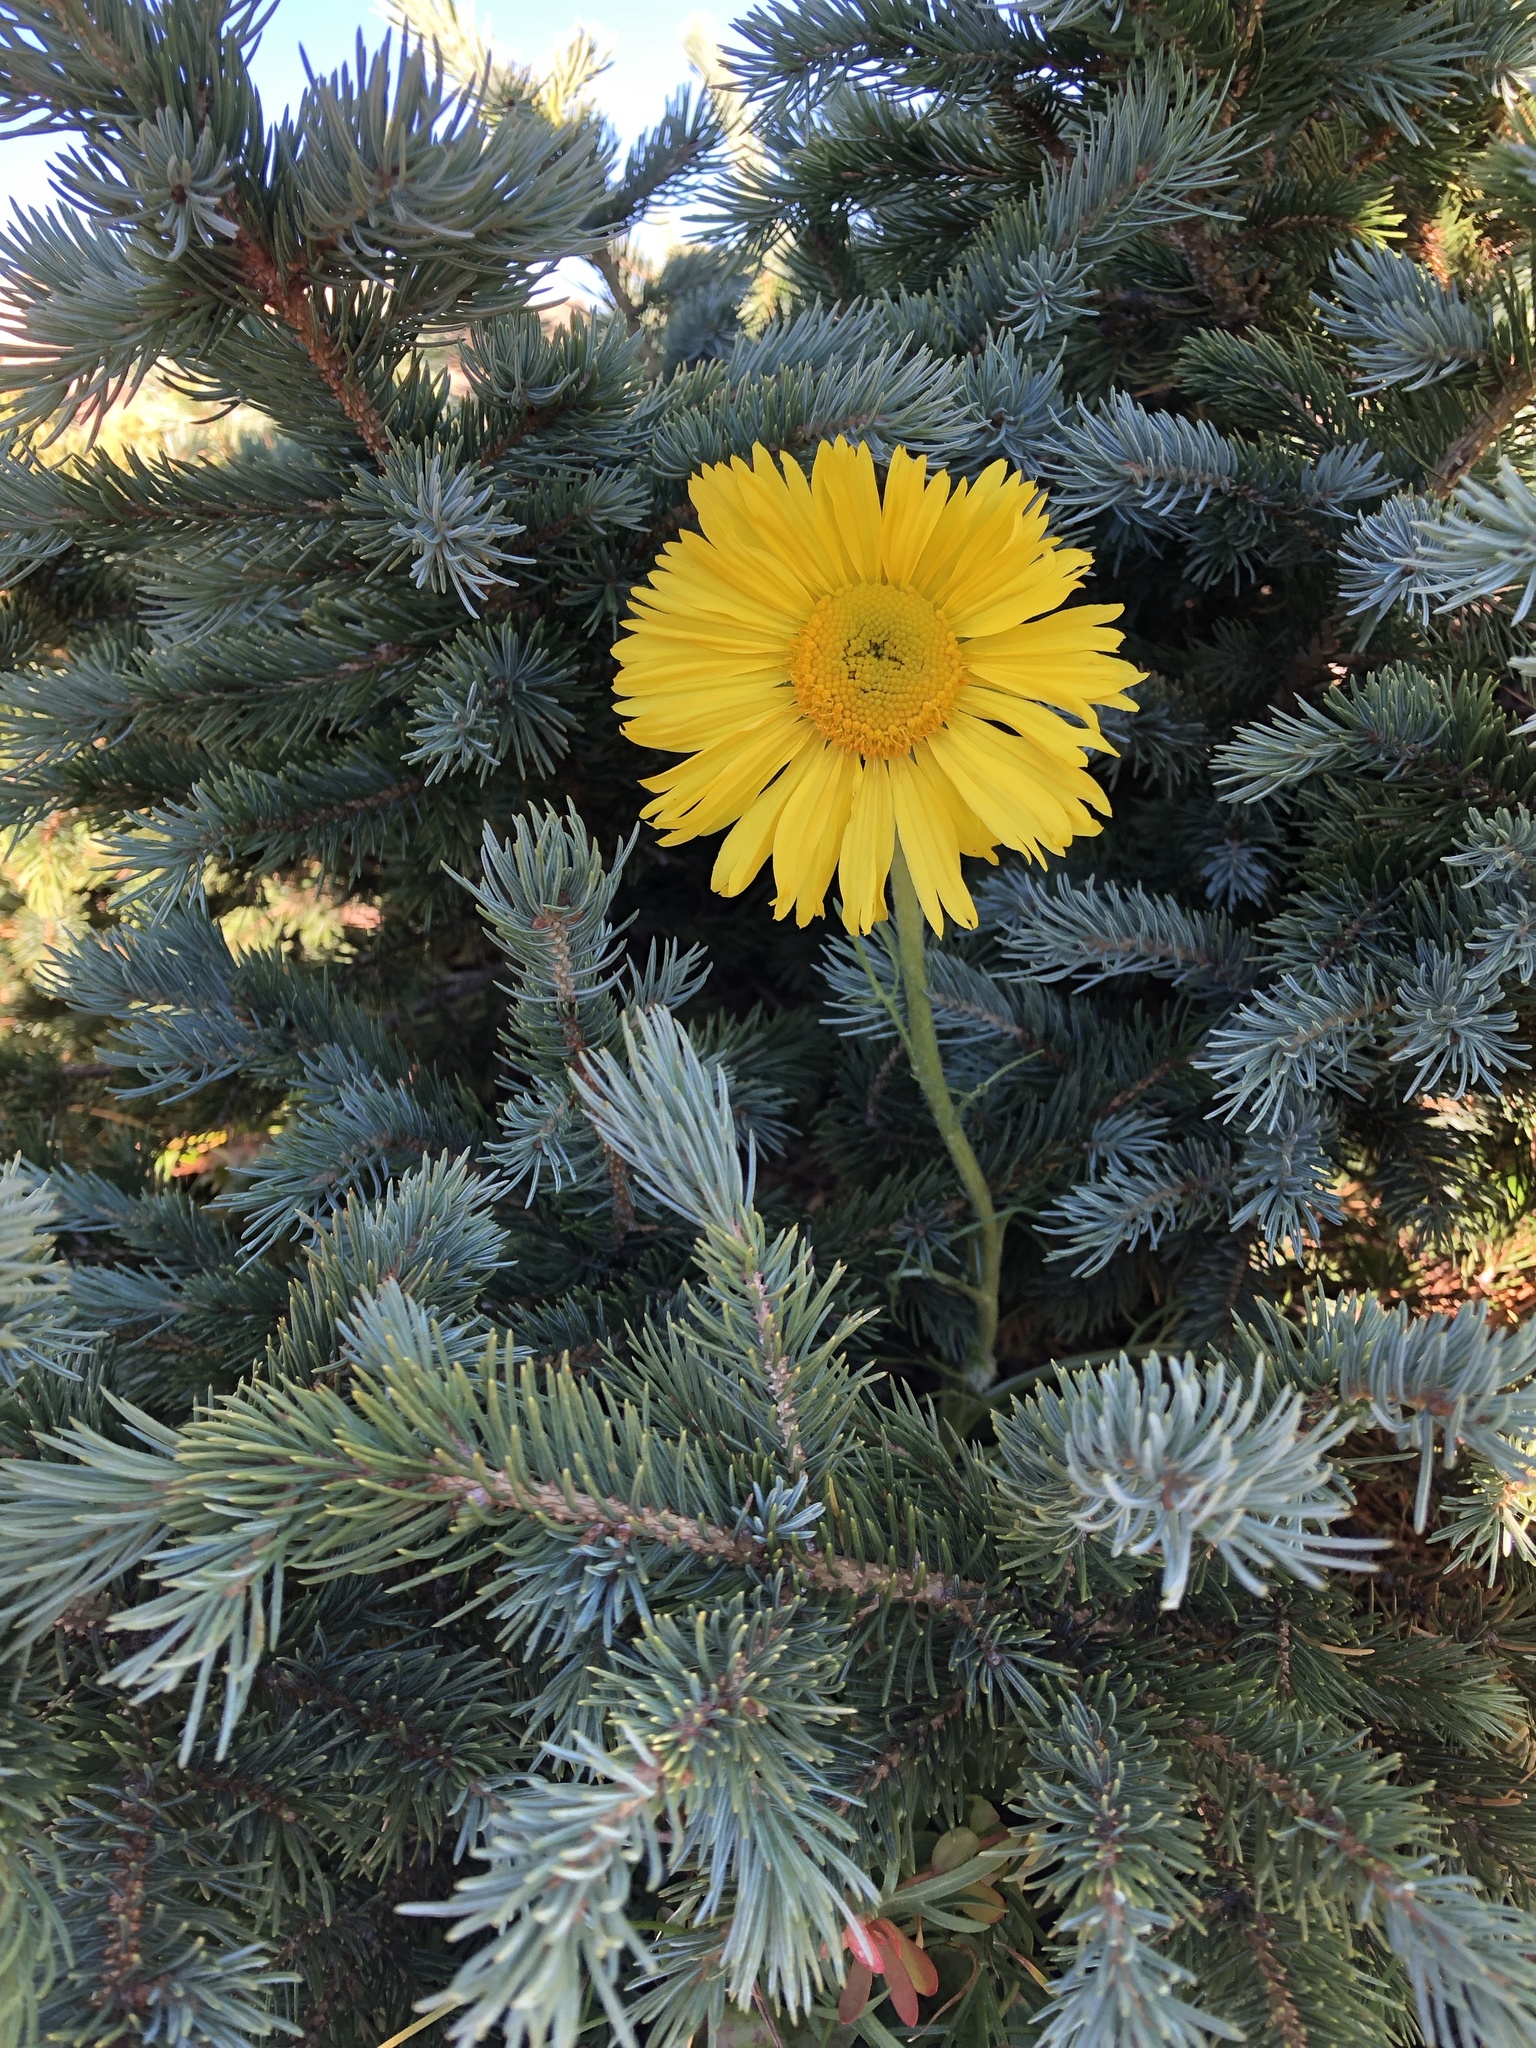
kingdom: Plantae
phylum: Tracheophyta
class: Magnoliopsida
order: Asterales
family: Asteraceae
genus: Hymenoxys
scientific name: Hymenoxys grandiflora
